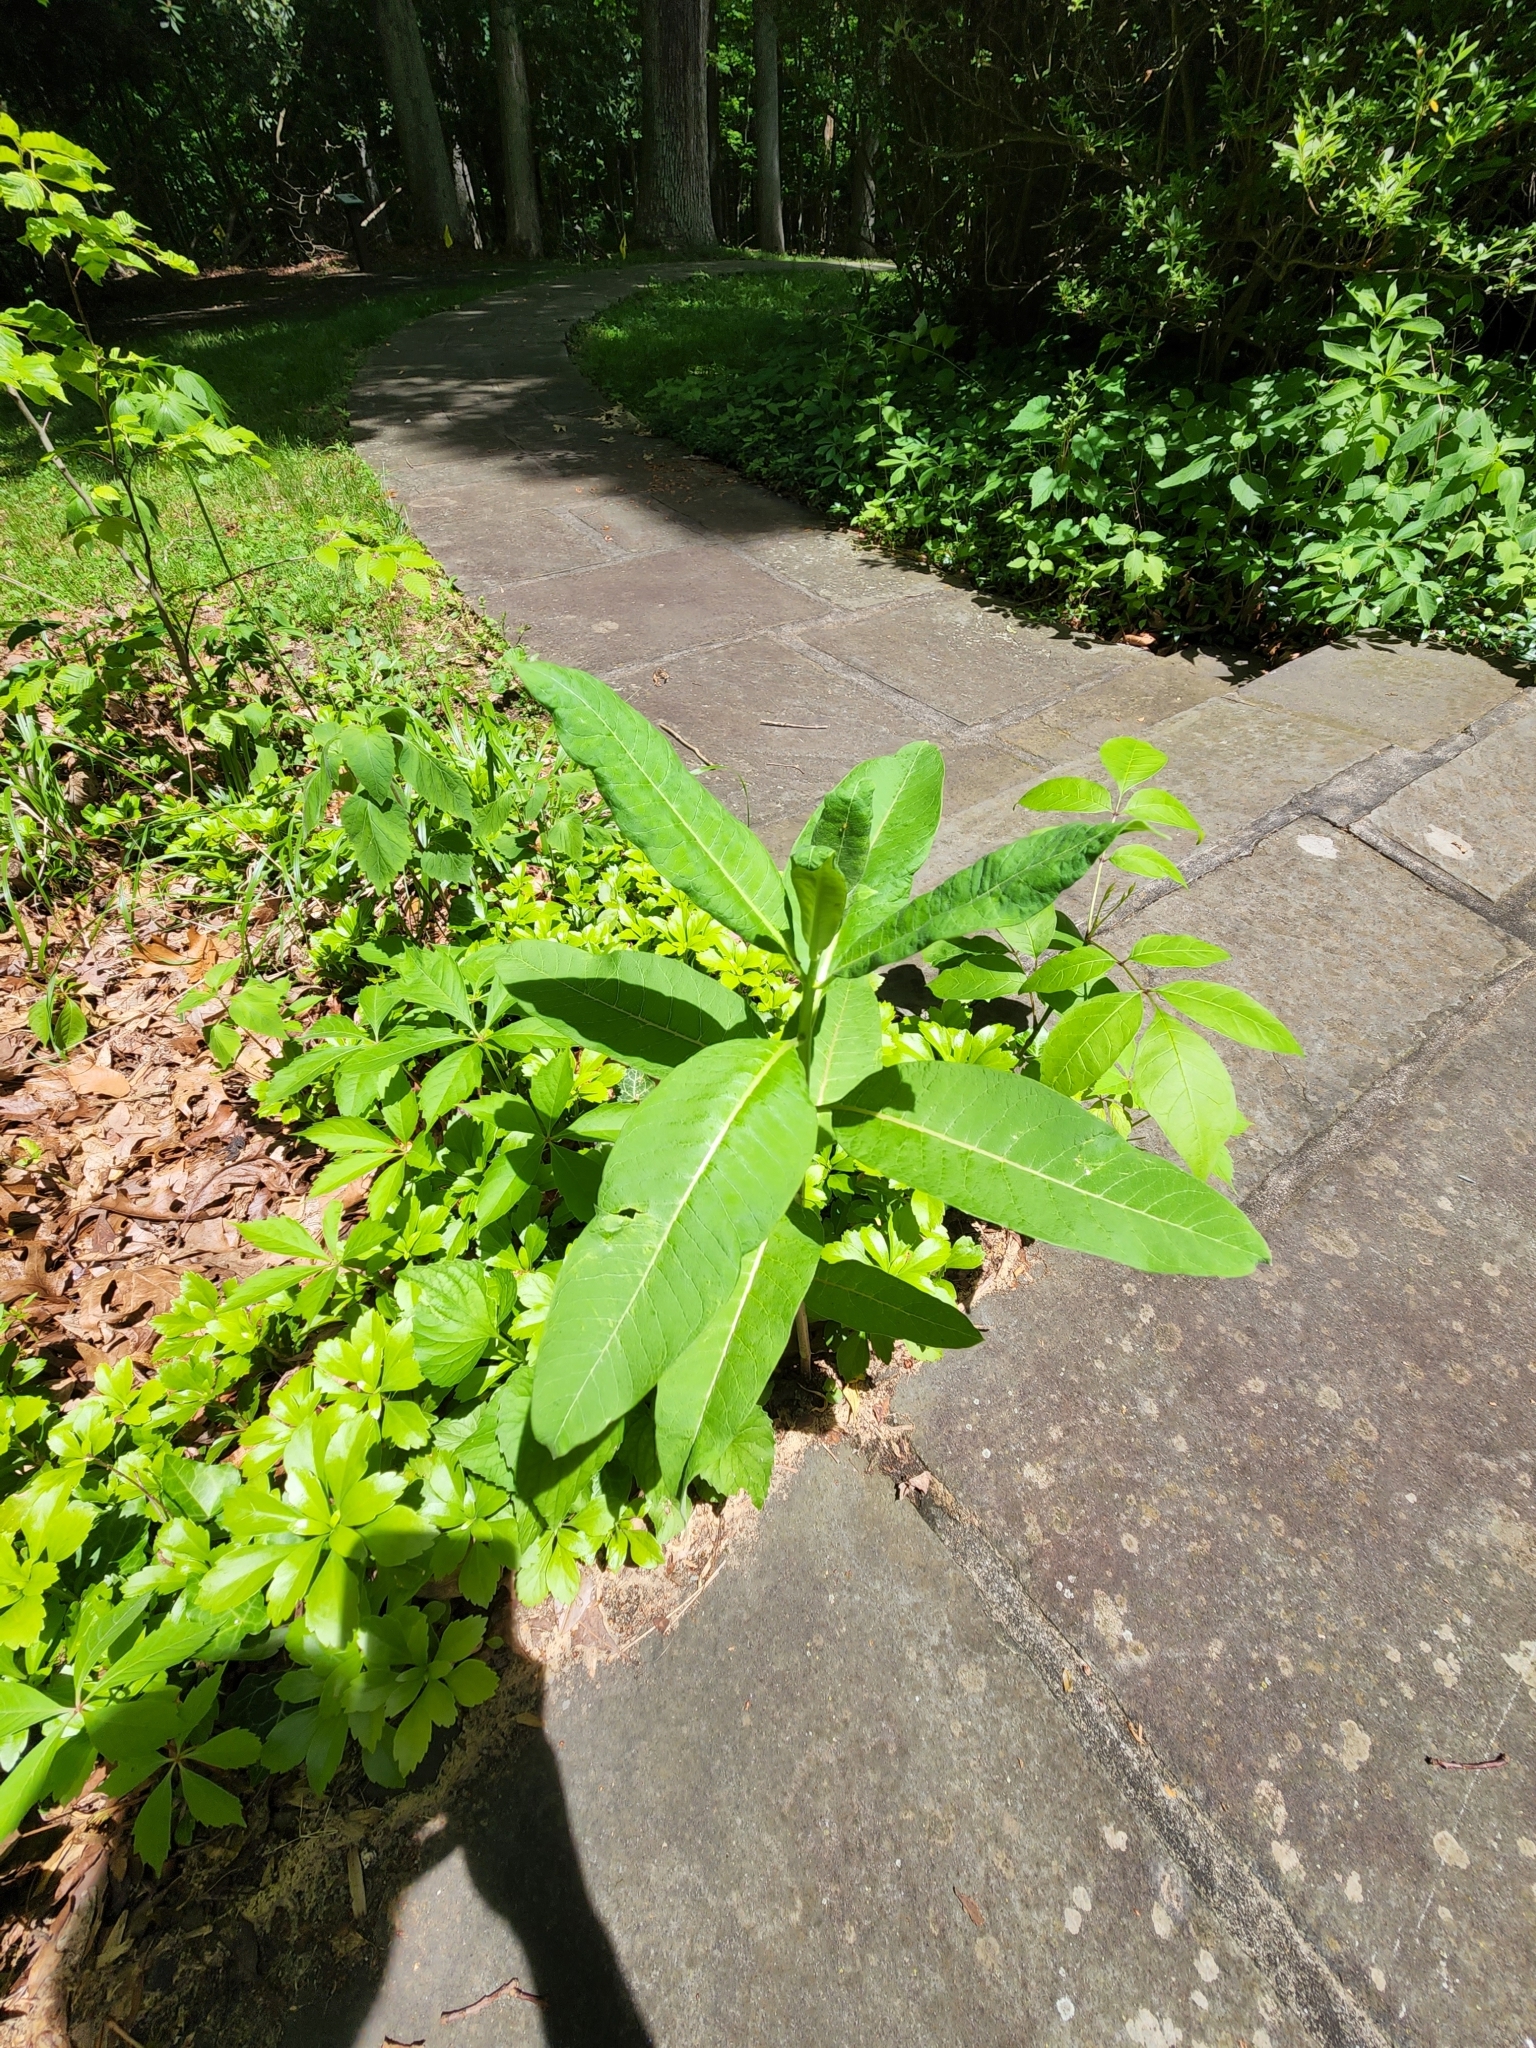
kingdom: Plantae
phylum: Tracheophyta
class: Magnoliopsida
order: Gentianales
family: Apocynaceae
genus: Asclepias
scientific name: Asclepias syriaca
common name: Common milkweed
